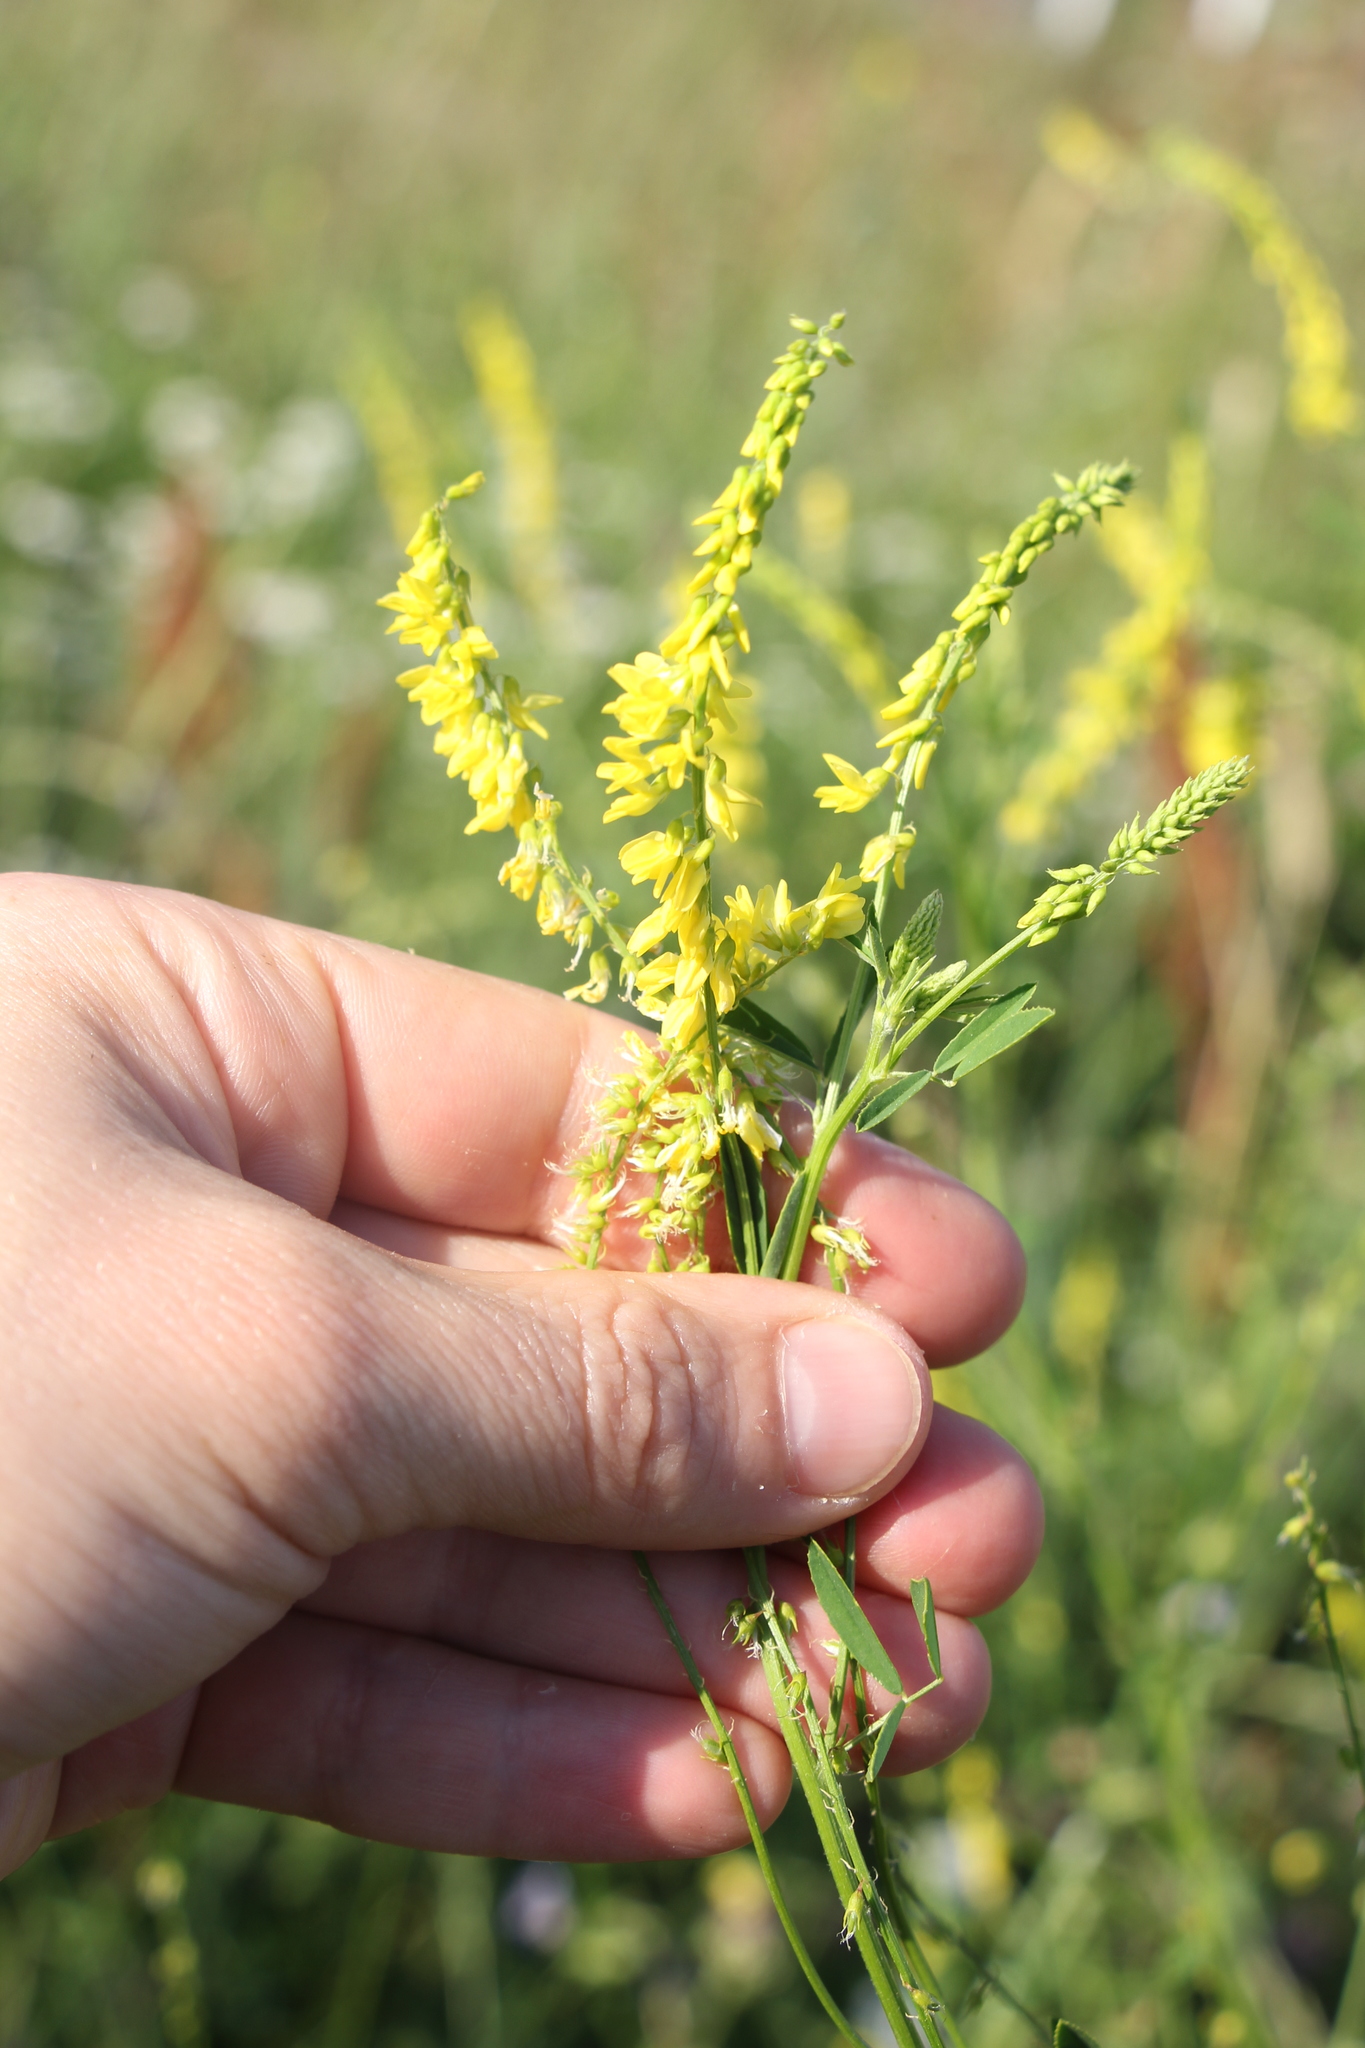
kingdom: Plantae
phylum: Tracheophyta
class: Magnoliopsida
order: Fabales
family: Fabaceae
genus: Melilotus
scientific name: Melilotus officinalis
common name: Sweetclover
